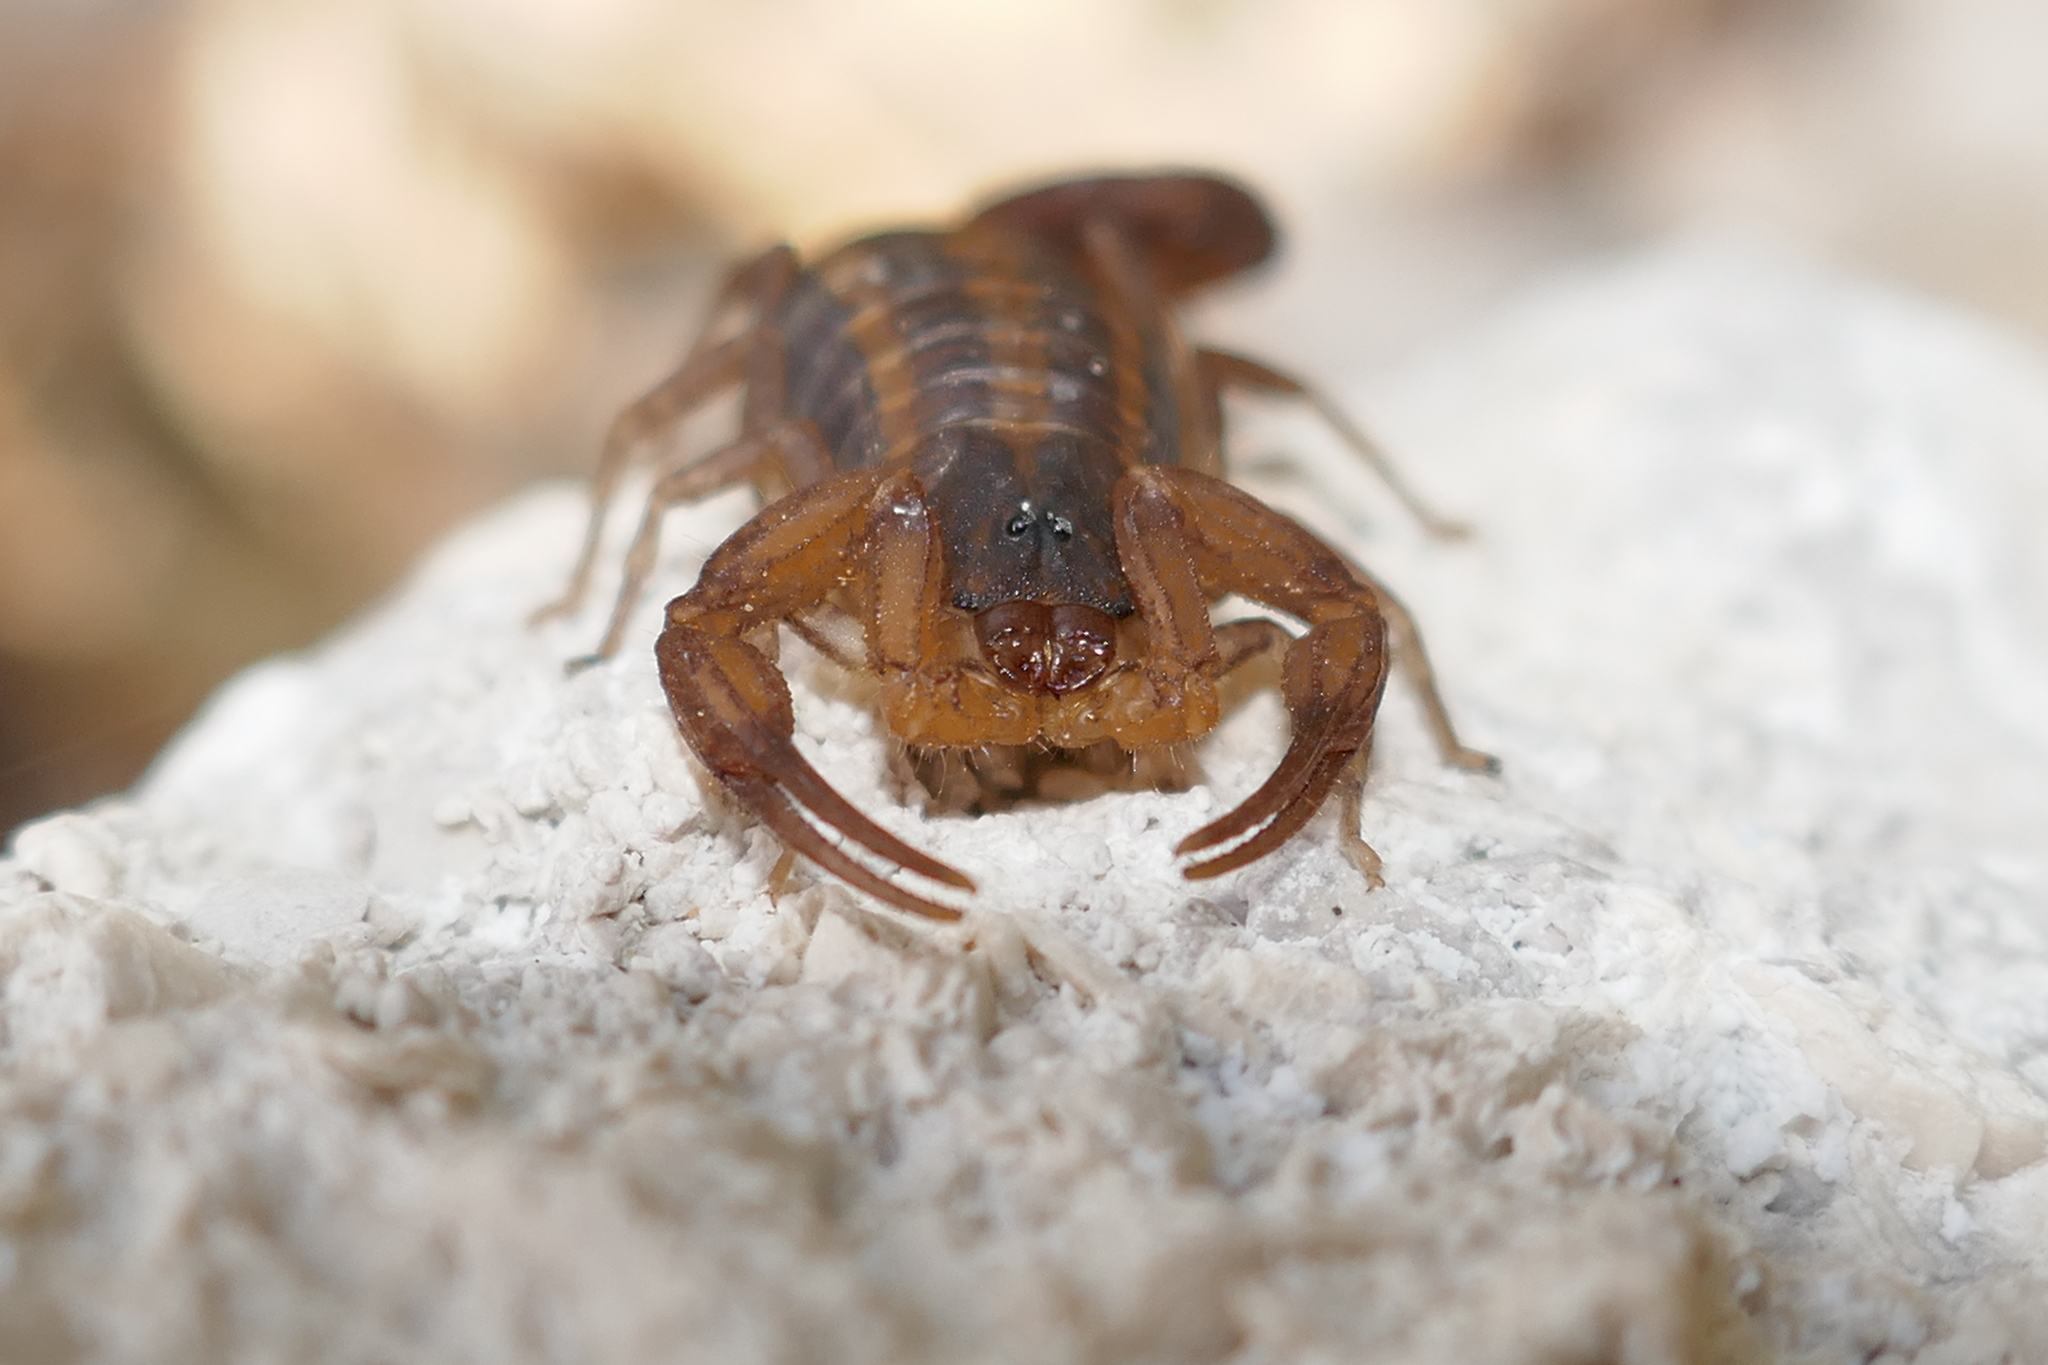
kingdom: Animalia
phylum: Arthropoda
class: Arachnida
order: Scorpiones
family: Buthidae
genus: Centruroides
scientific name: Centruroides hentzi
